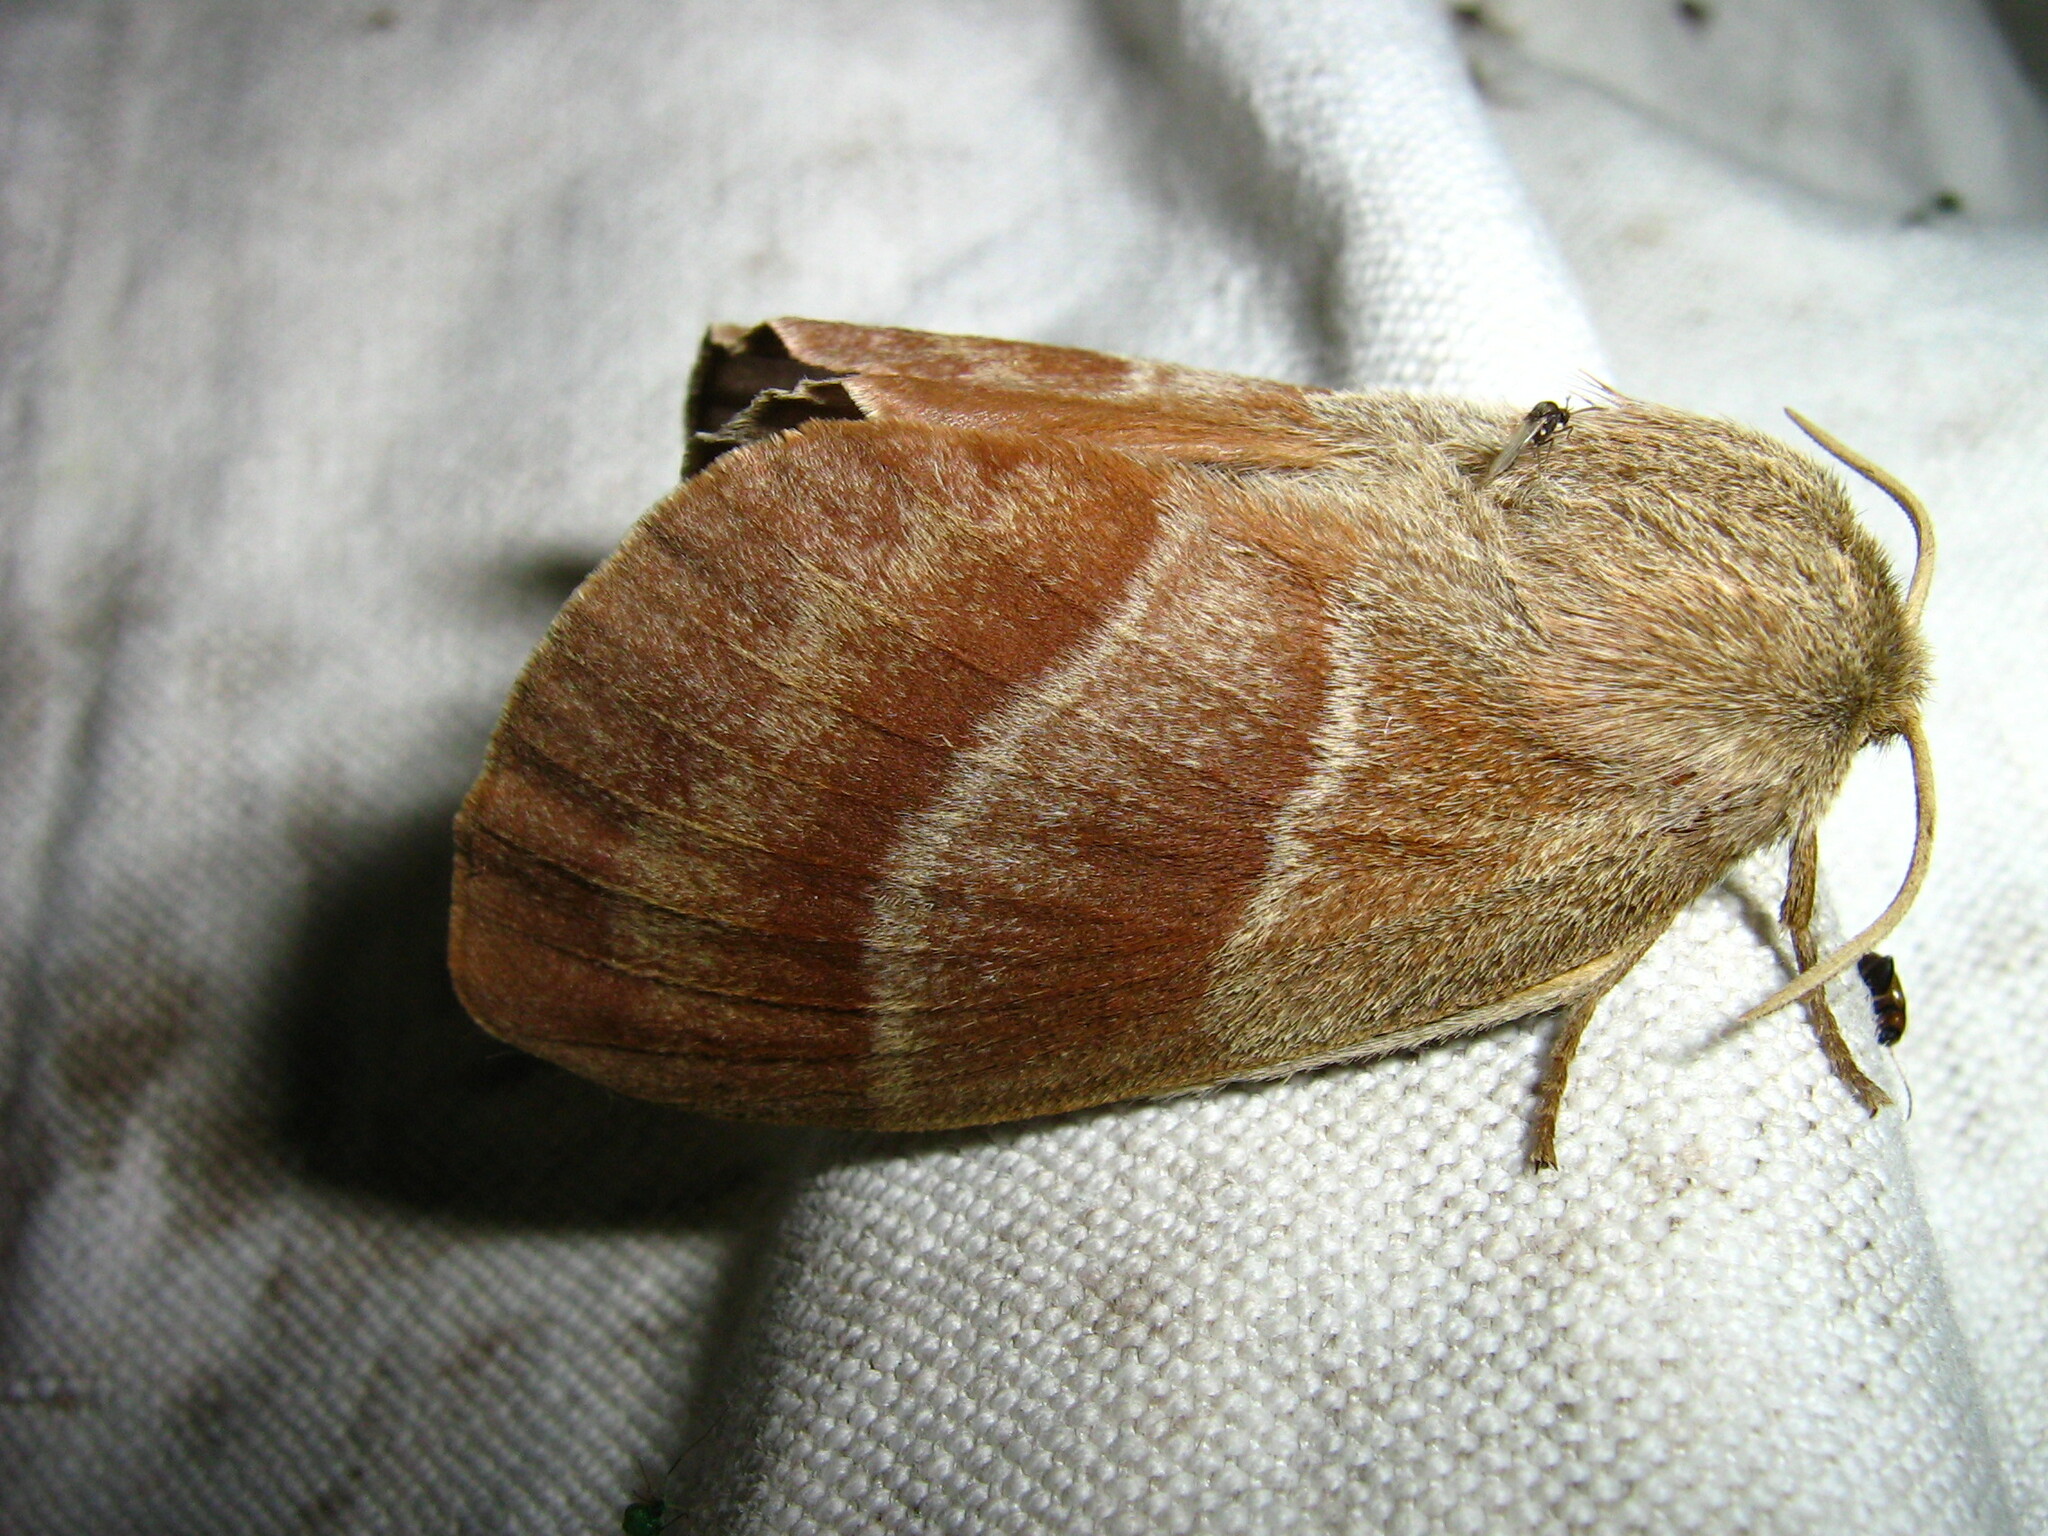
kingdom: Animalia
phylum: Arthropoda
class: Insecta
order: Lepidoptera
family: Lasiocampidae
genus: Macrothylacia
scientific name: Macrothylacia rubi
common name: Fox moth
